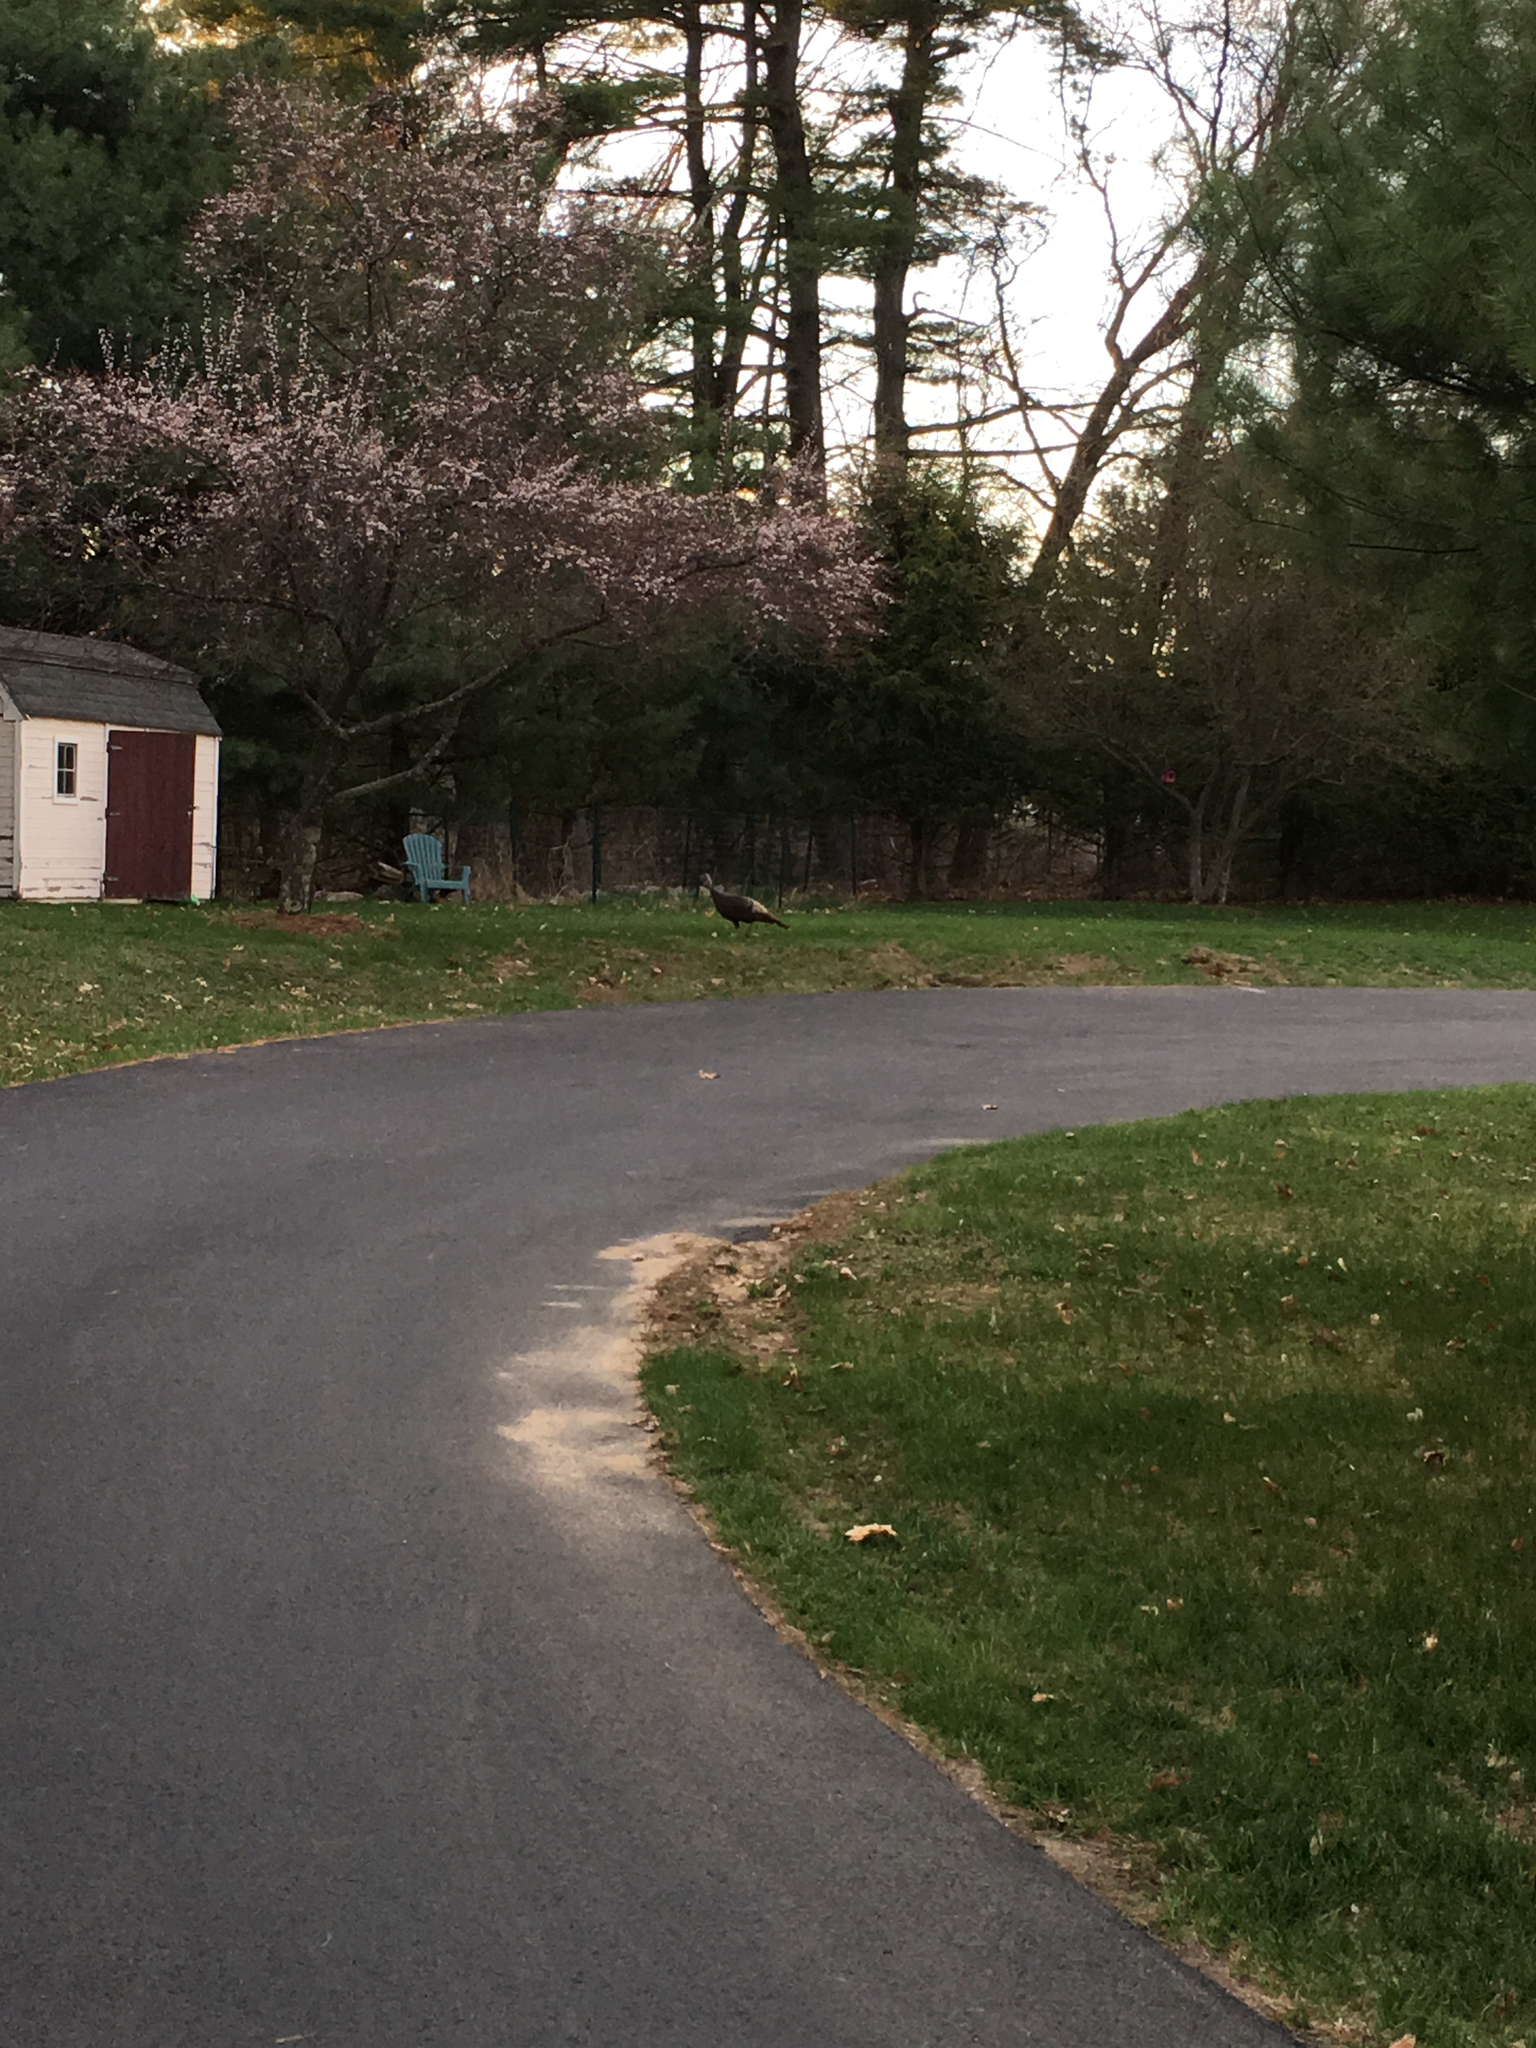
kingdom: Animalia
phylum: Chordata
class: Aves
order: Galliformes
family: Phasianidae
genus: Meleagris
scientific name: Meleagris gallopavo
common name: Wild turkey
